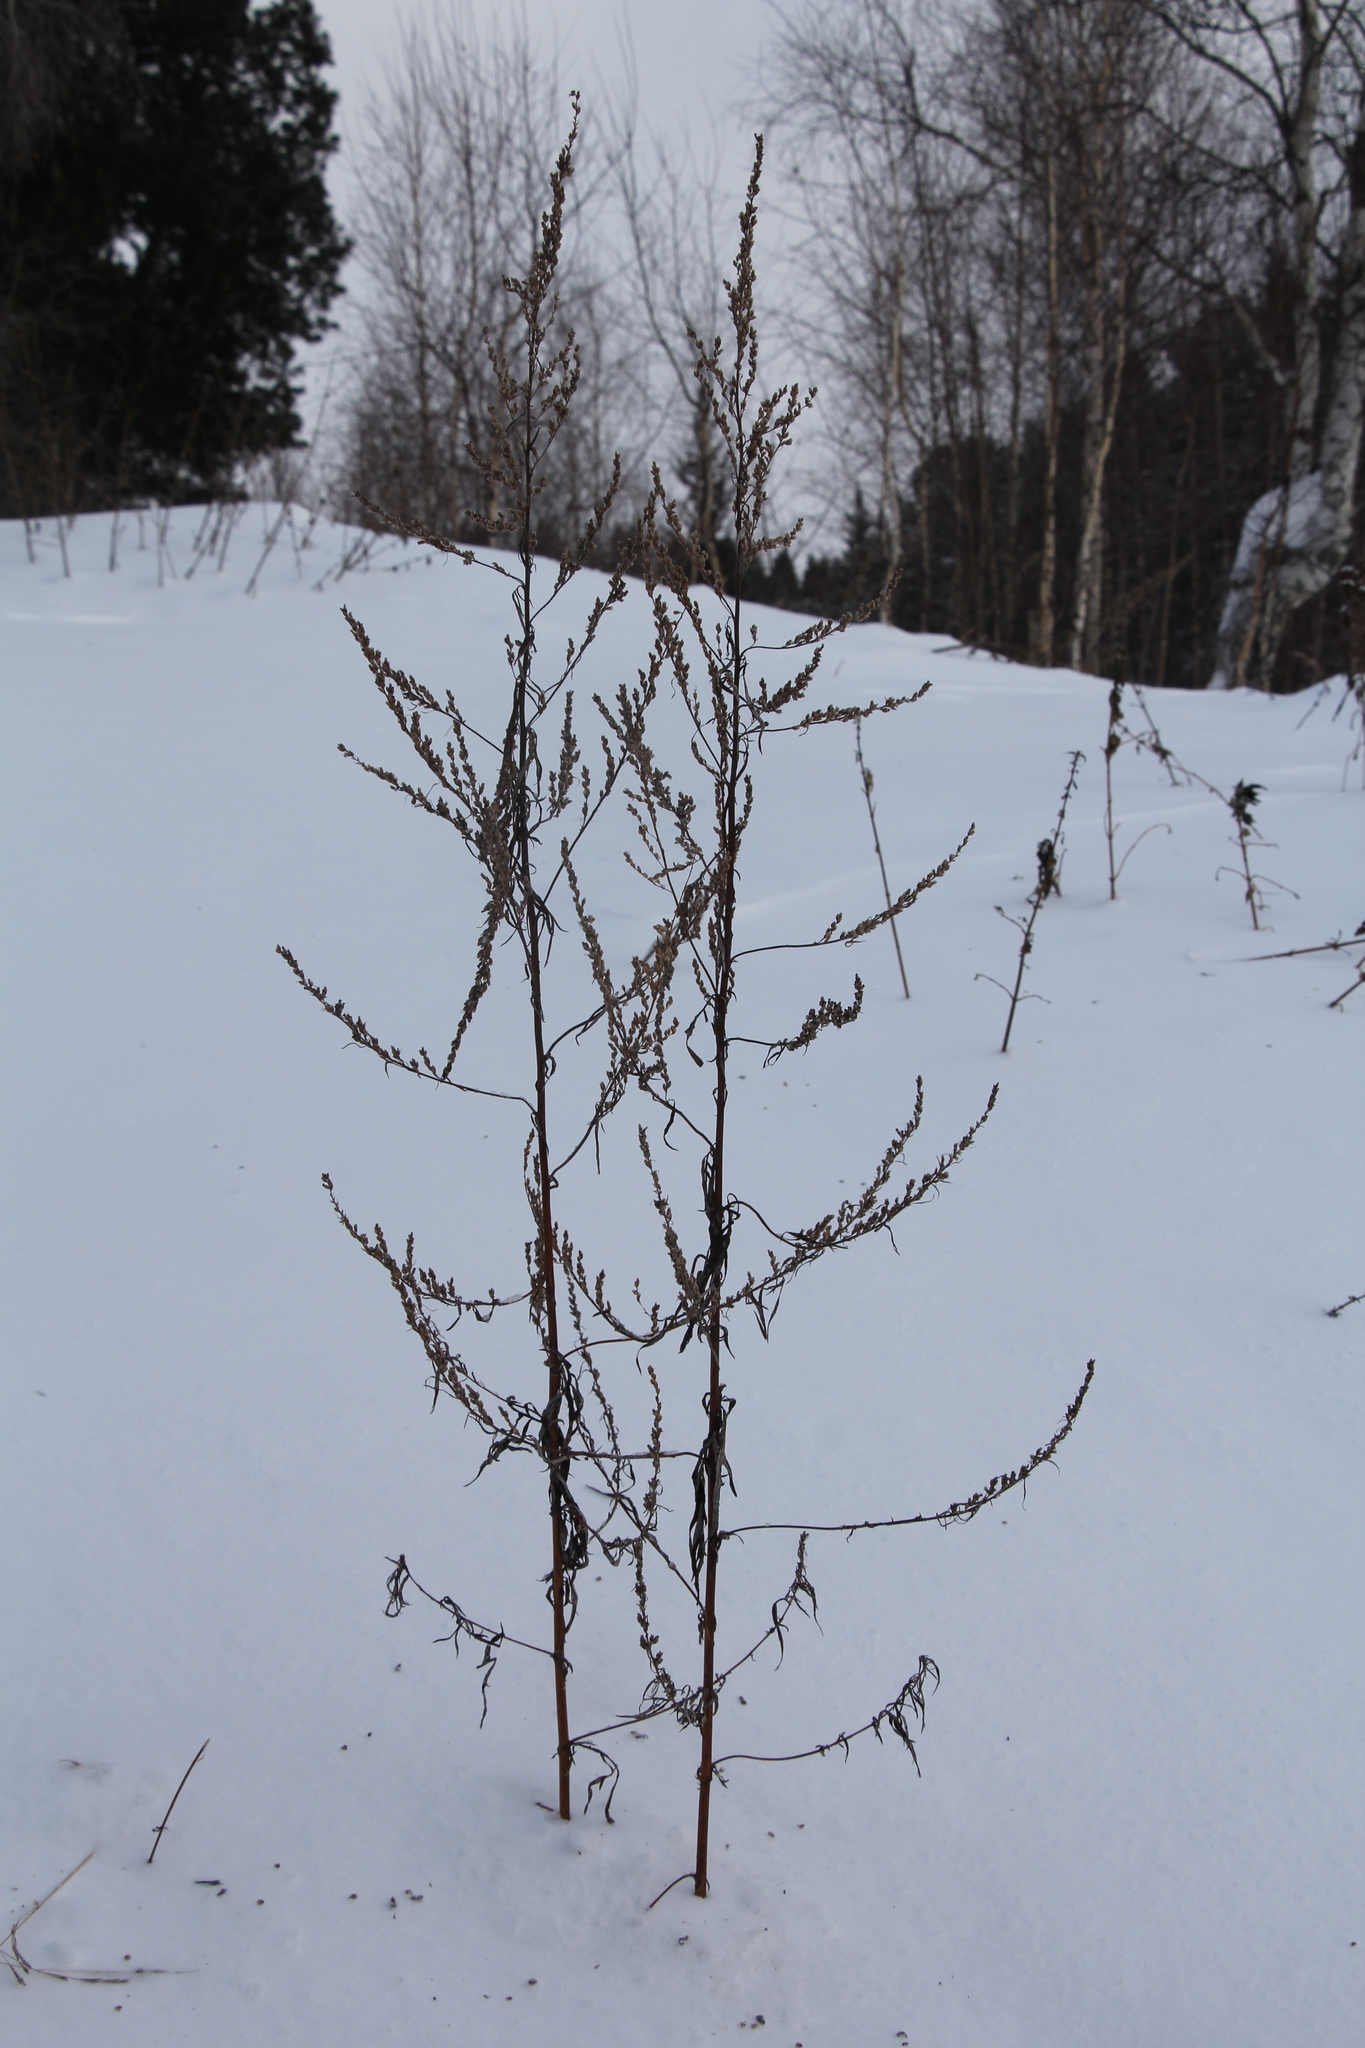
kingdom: Plantae
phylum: Tracheophyta
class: Magnoliopsida
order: Asterales
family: Asteraceae
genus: Artemisia
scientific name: Artemisia vulgaris
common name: Mugwort
